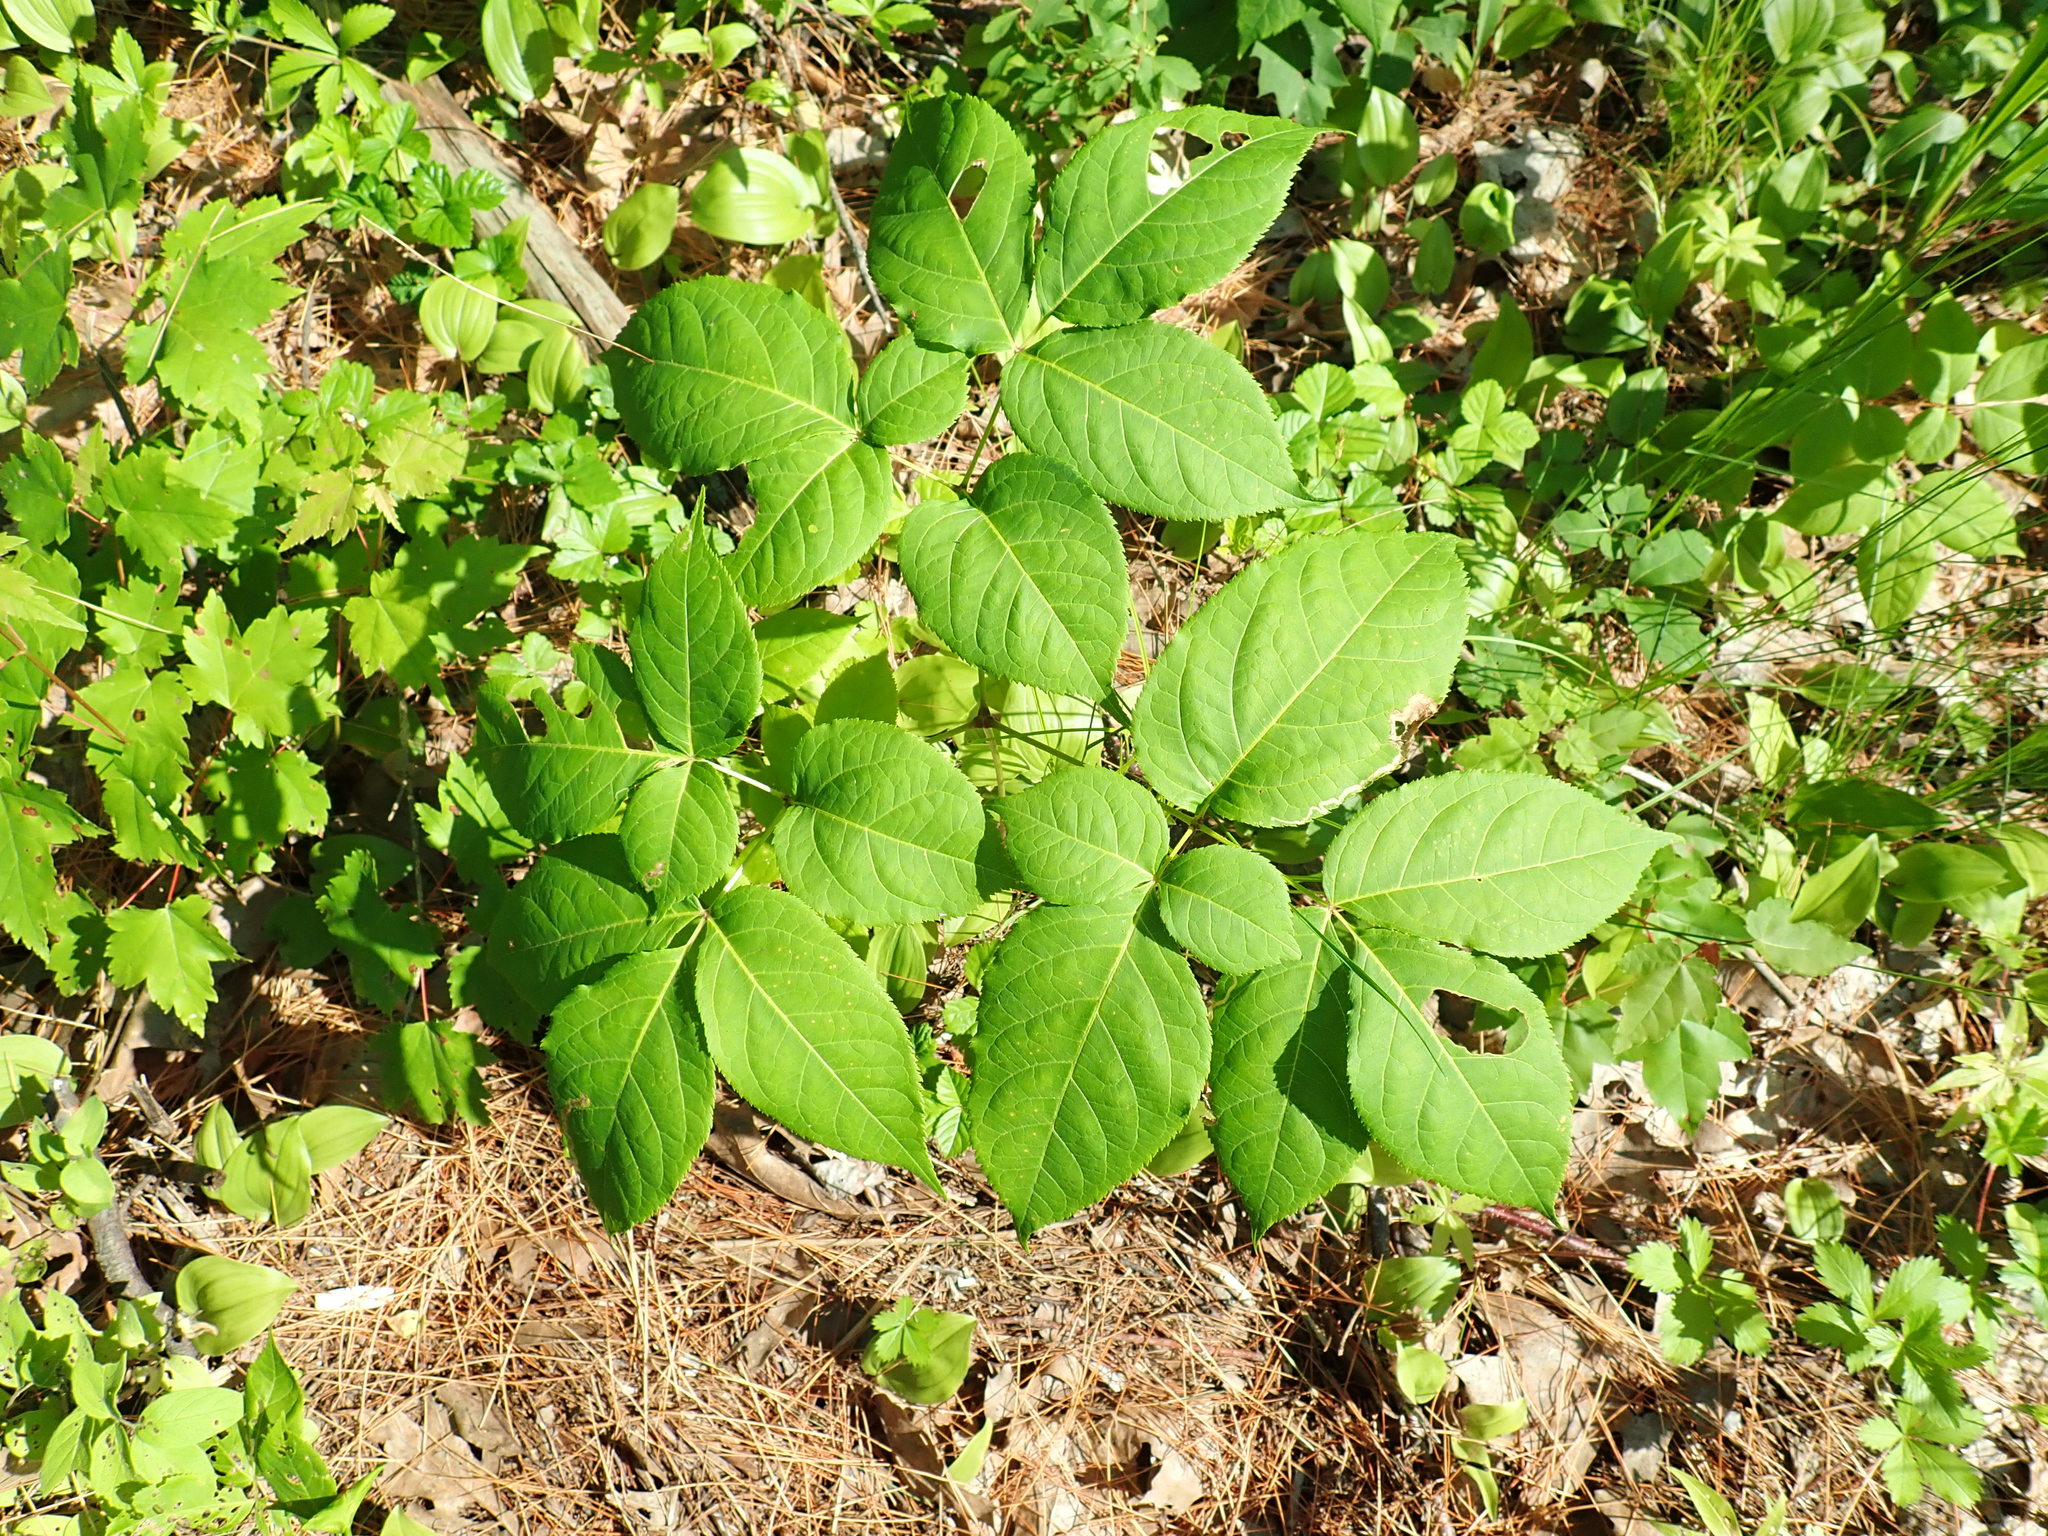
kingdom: Plantae
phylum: Tracheophyta
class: Magnoliopsida
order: Apiales
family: Araliaceae
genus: Aralia
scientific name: Aralia nudicaulis
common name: Wild sarsaparilla
